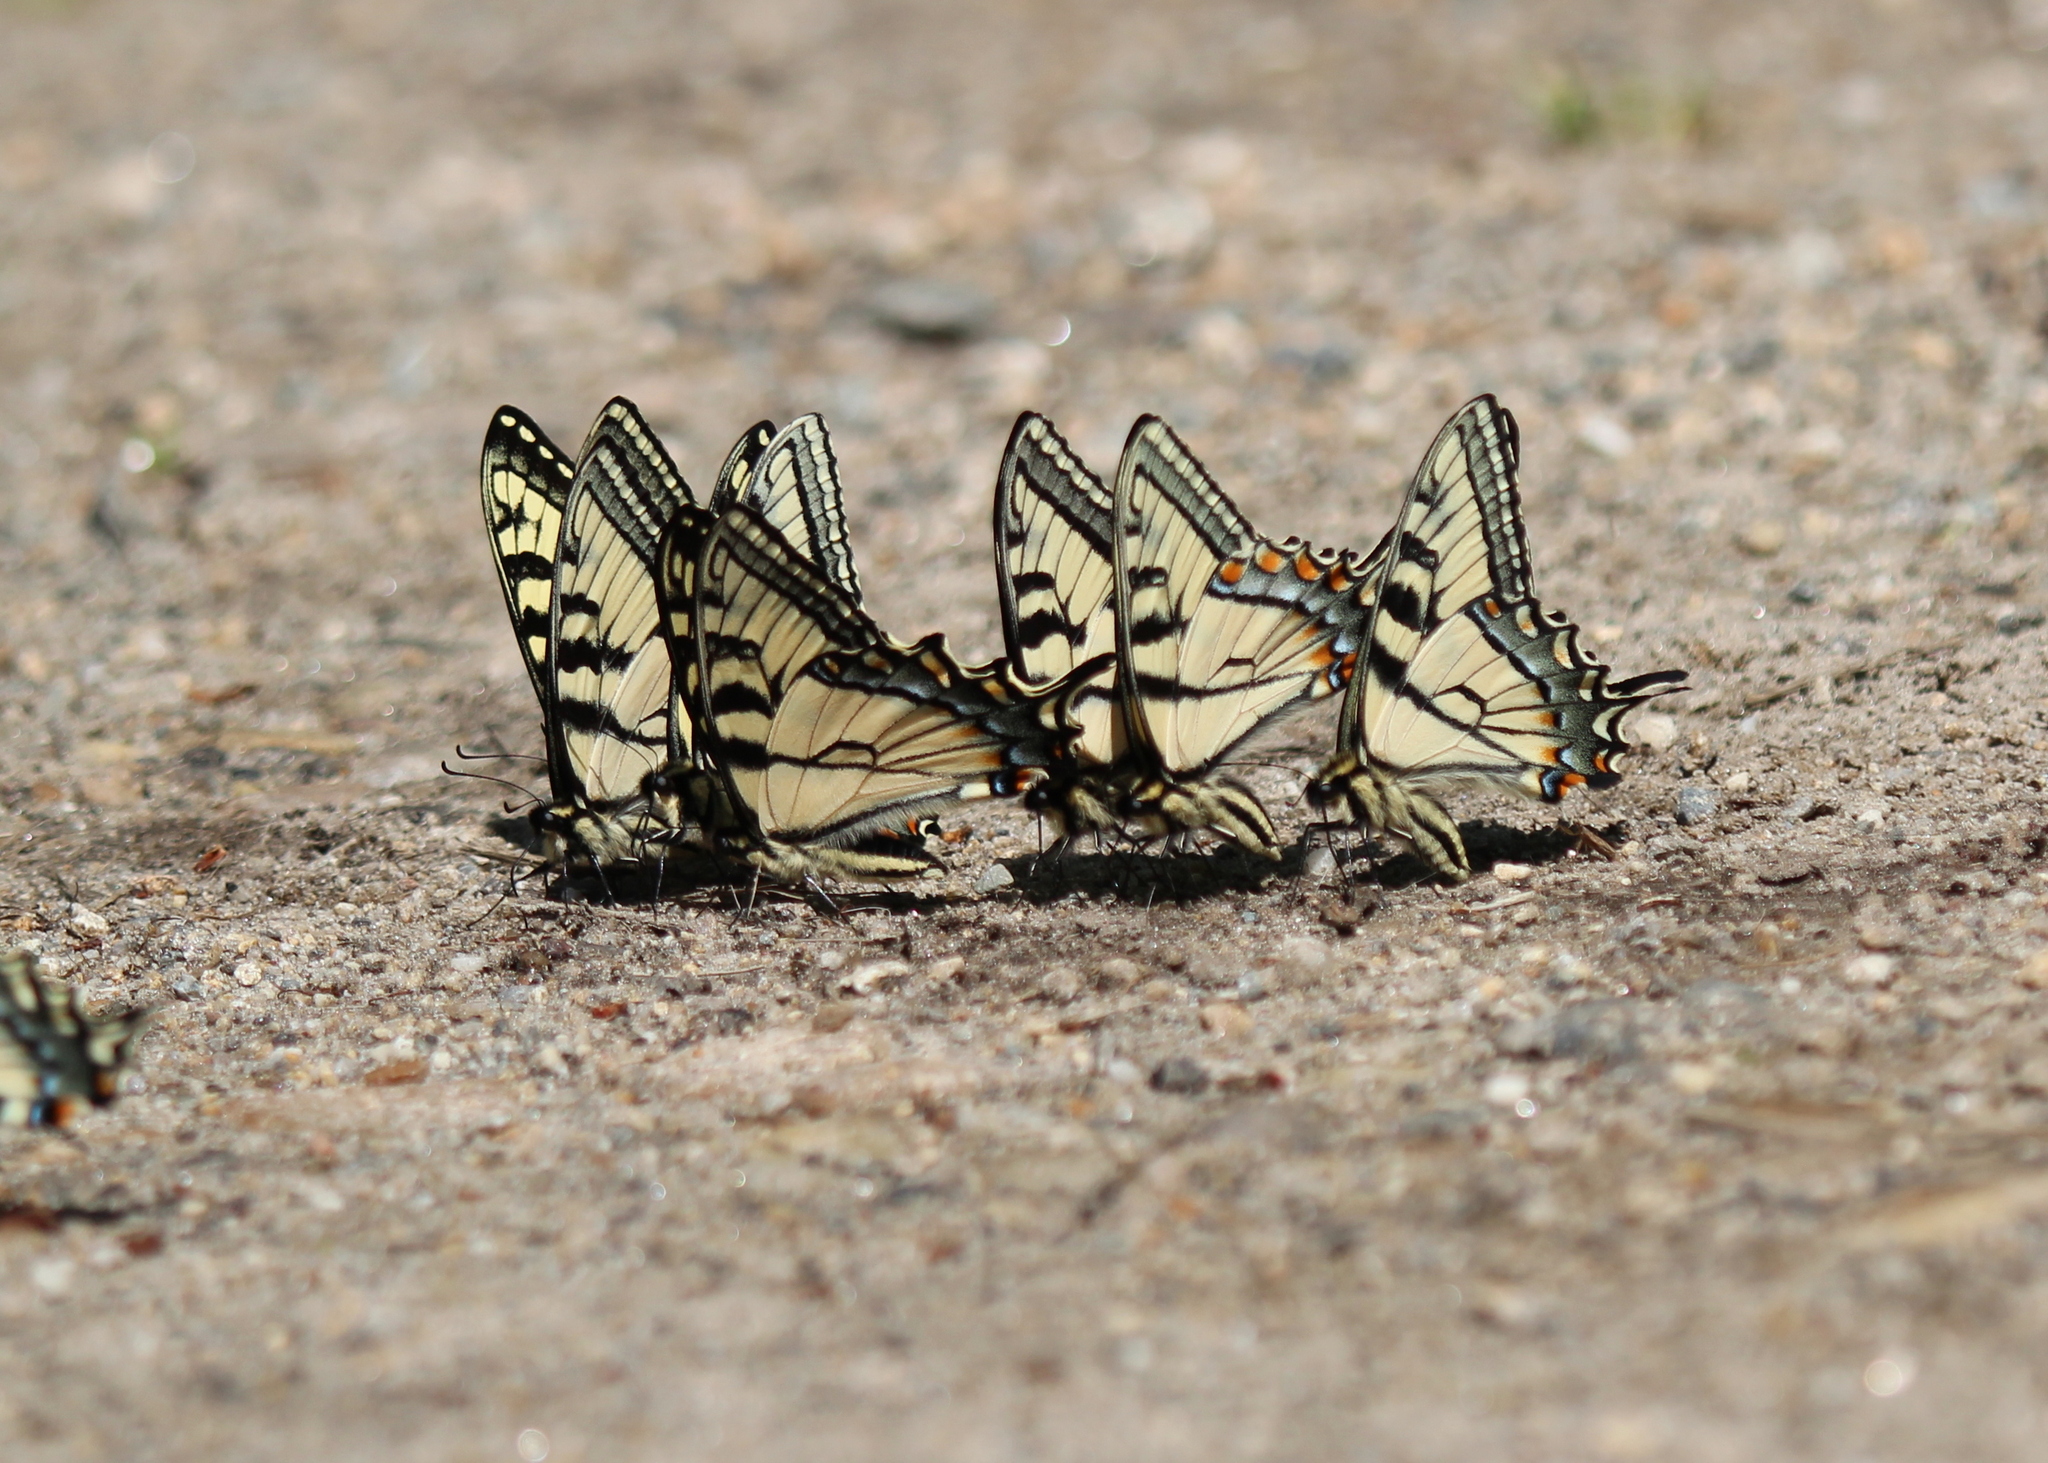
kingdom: Animalia
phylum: Arthropoda
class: Insecta
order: Lepidoptera
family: Papilionidae
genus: Papilio
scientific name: Papilio canadensis
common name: Canadian tiger swallowtail
